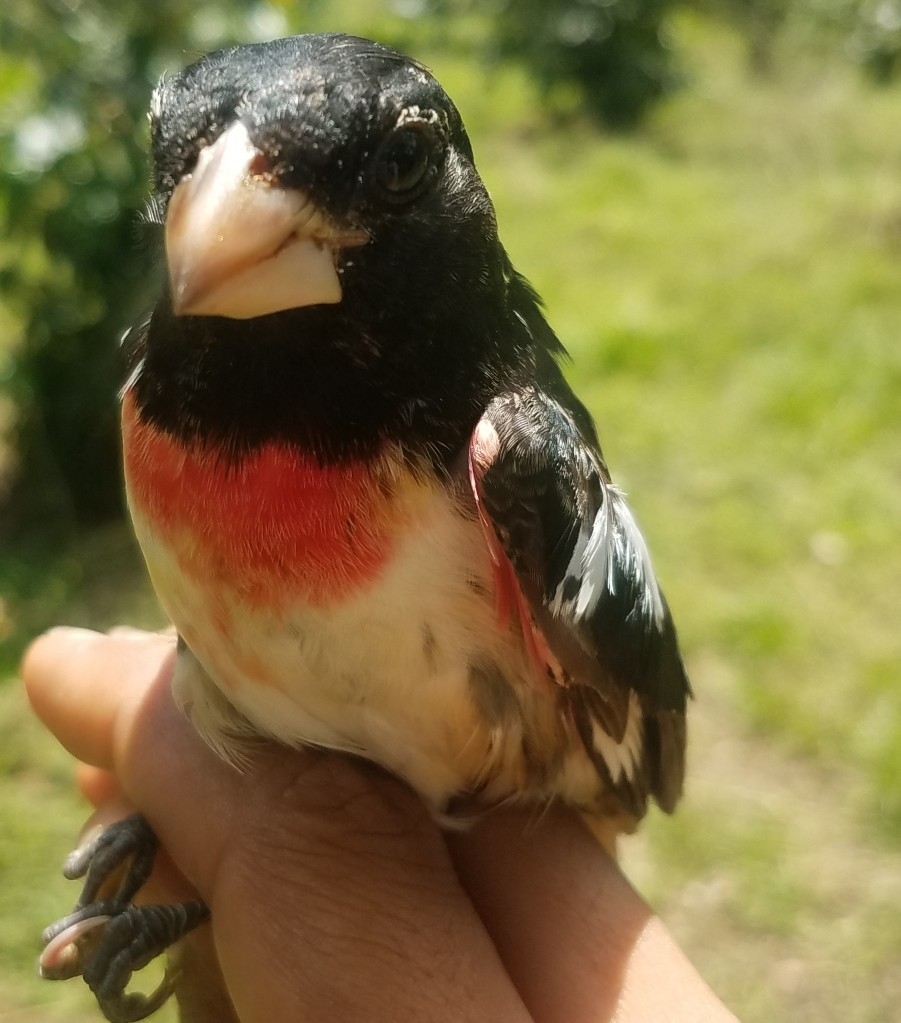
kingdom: Animalia
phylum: Chordata
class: Aves
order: Passeriformes
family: Cardinalidae
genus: Pheucticus
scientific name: Pheucticus ludovicianus
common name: Rose-breasted grosbeak
